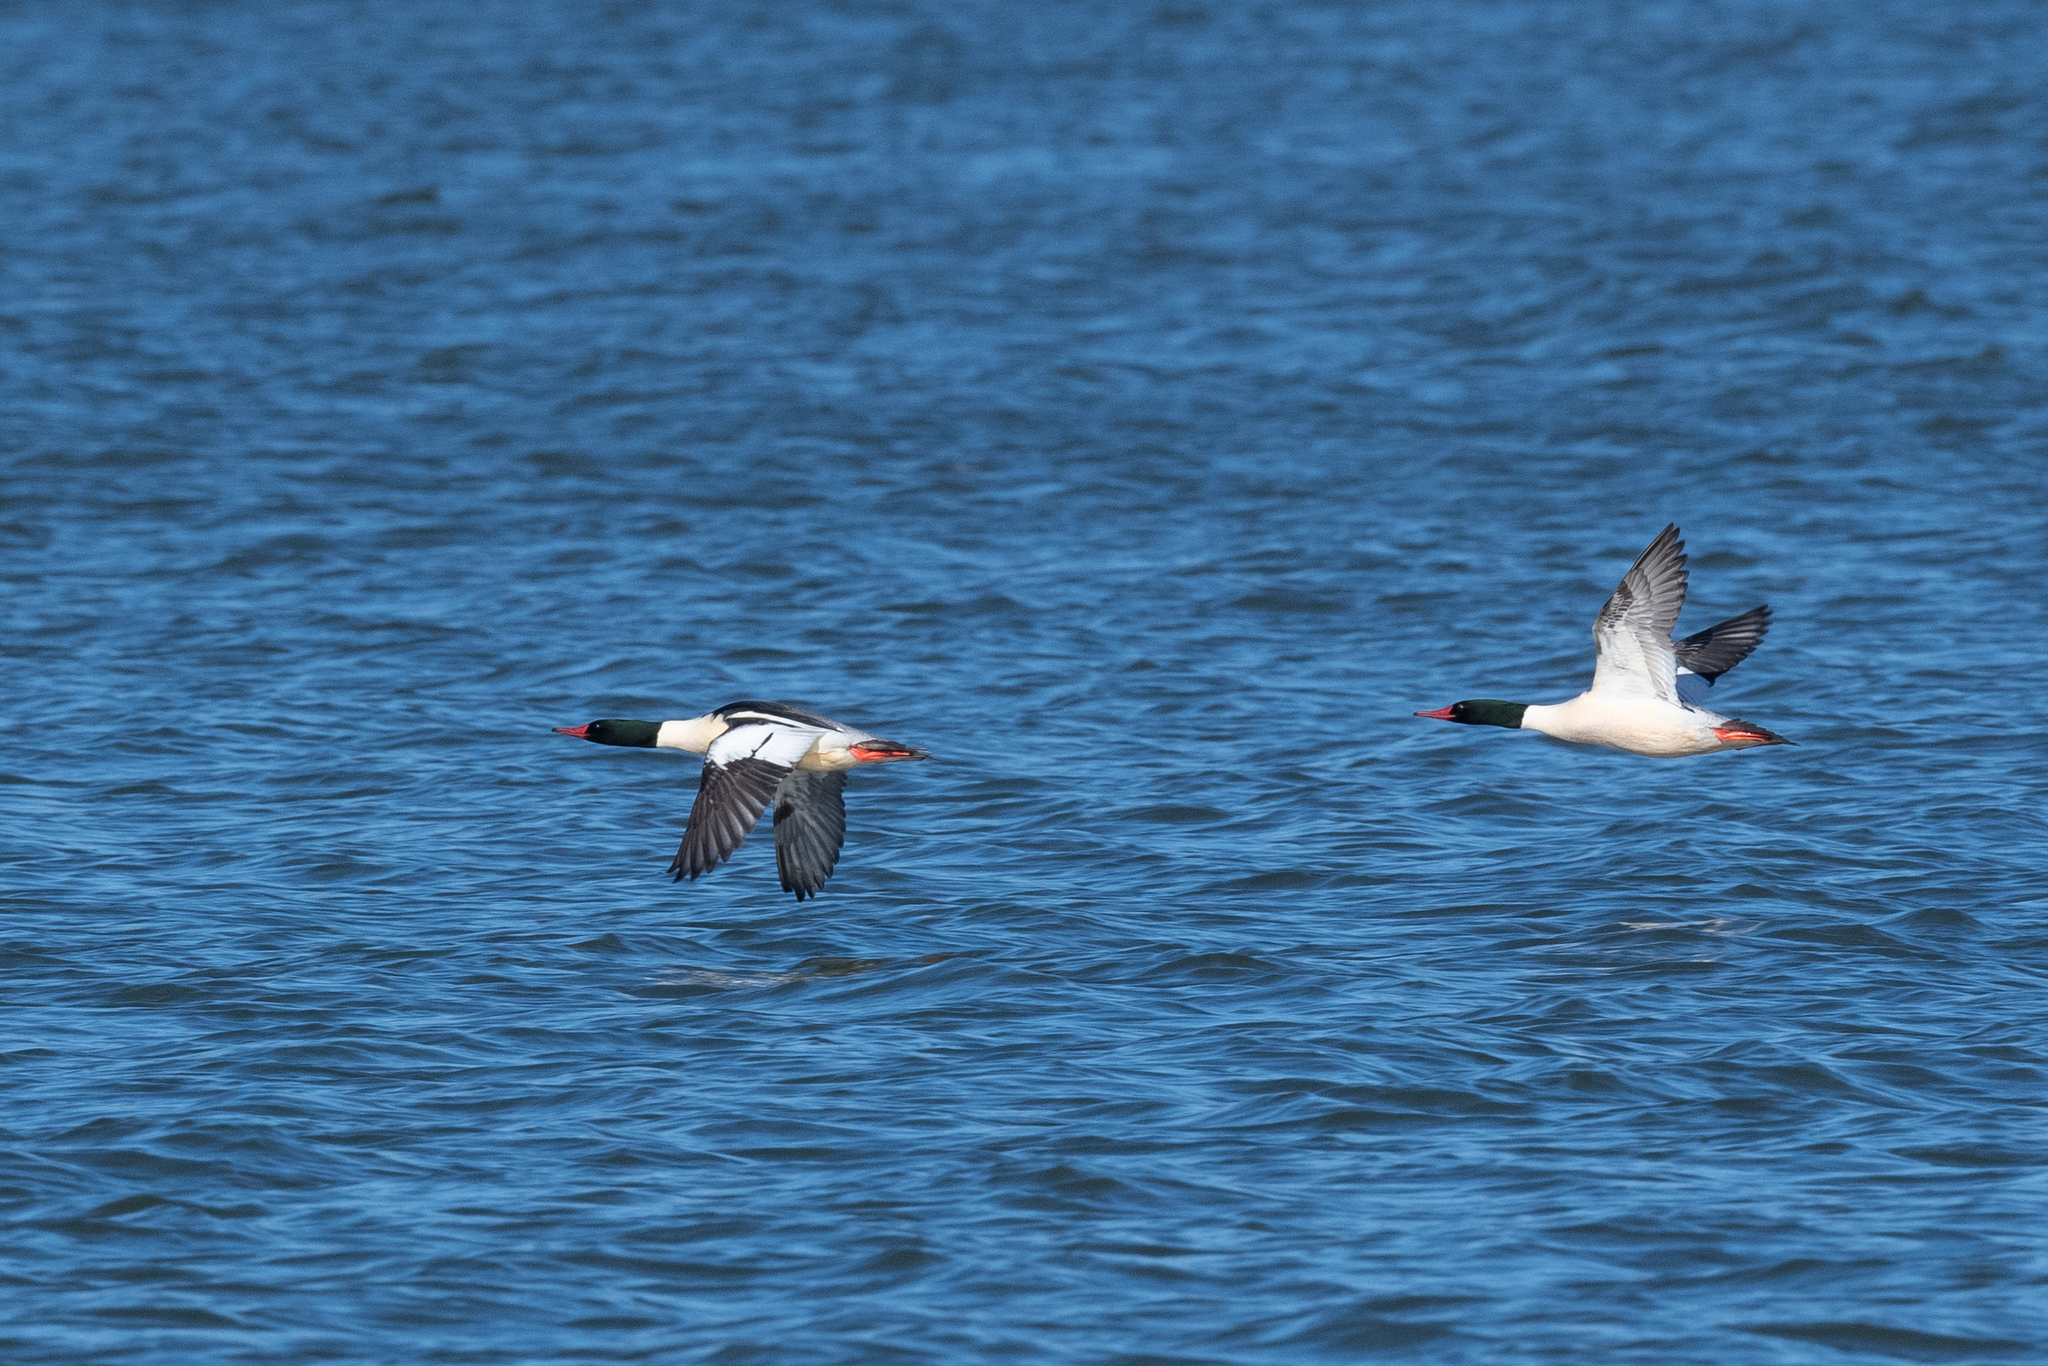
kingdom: Animalia
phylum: Chordata
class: Aves
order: Anseriformes
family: Anatidae
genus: Mergus
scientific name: Mergus merganser
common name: Common merganser
